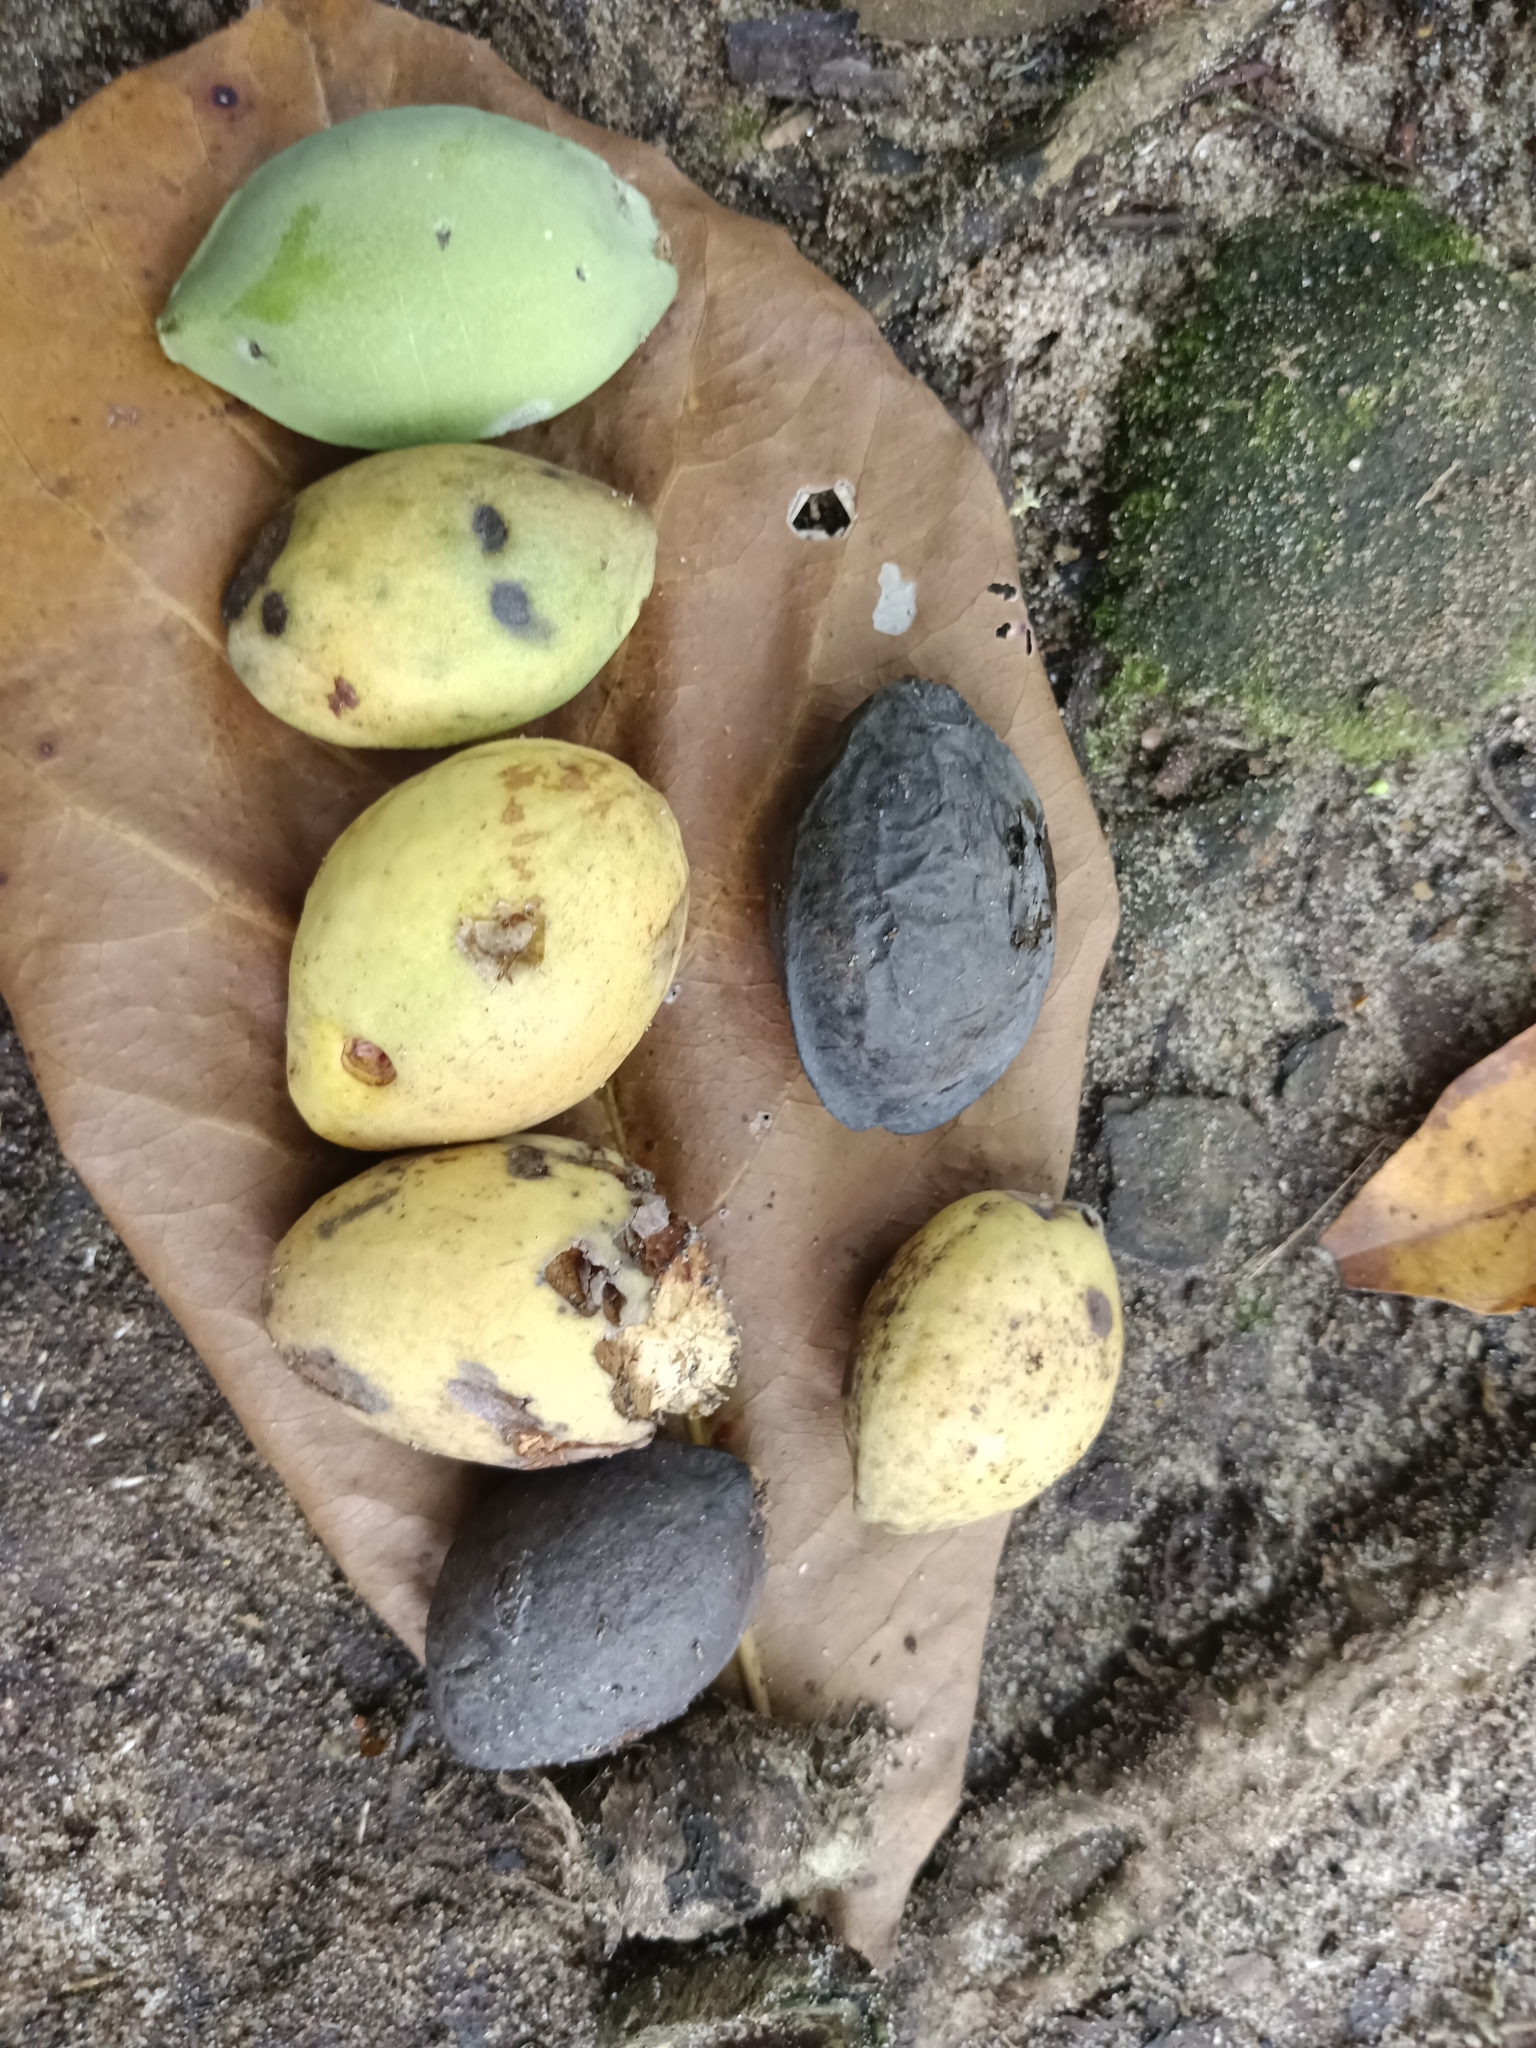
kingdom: Plantae
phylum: Tracheophyta
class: Magnoliopsida
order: Myrtales
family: Combretaceae
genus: Terminalia
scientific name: Terminalia catappa
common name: Tropical almond
